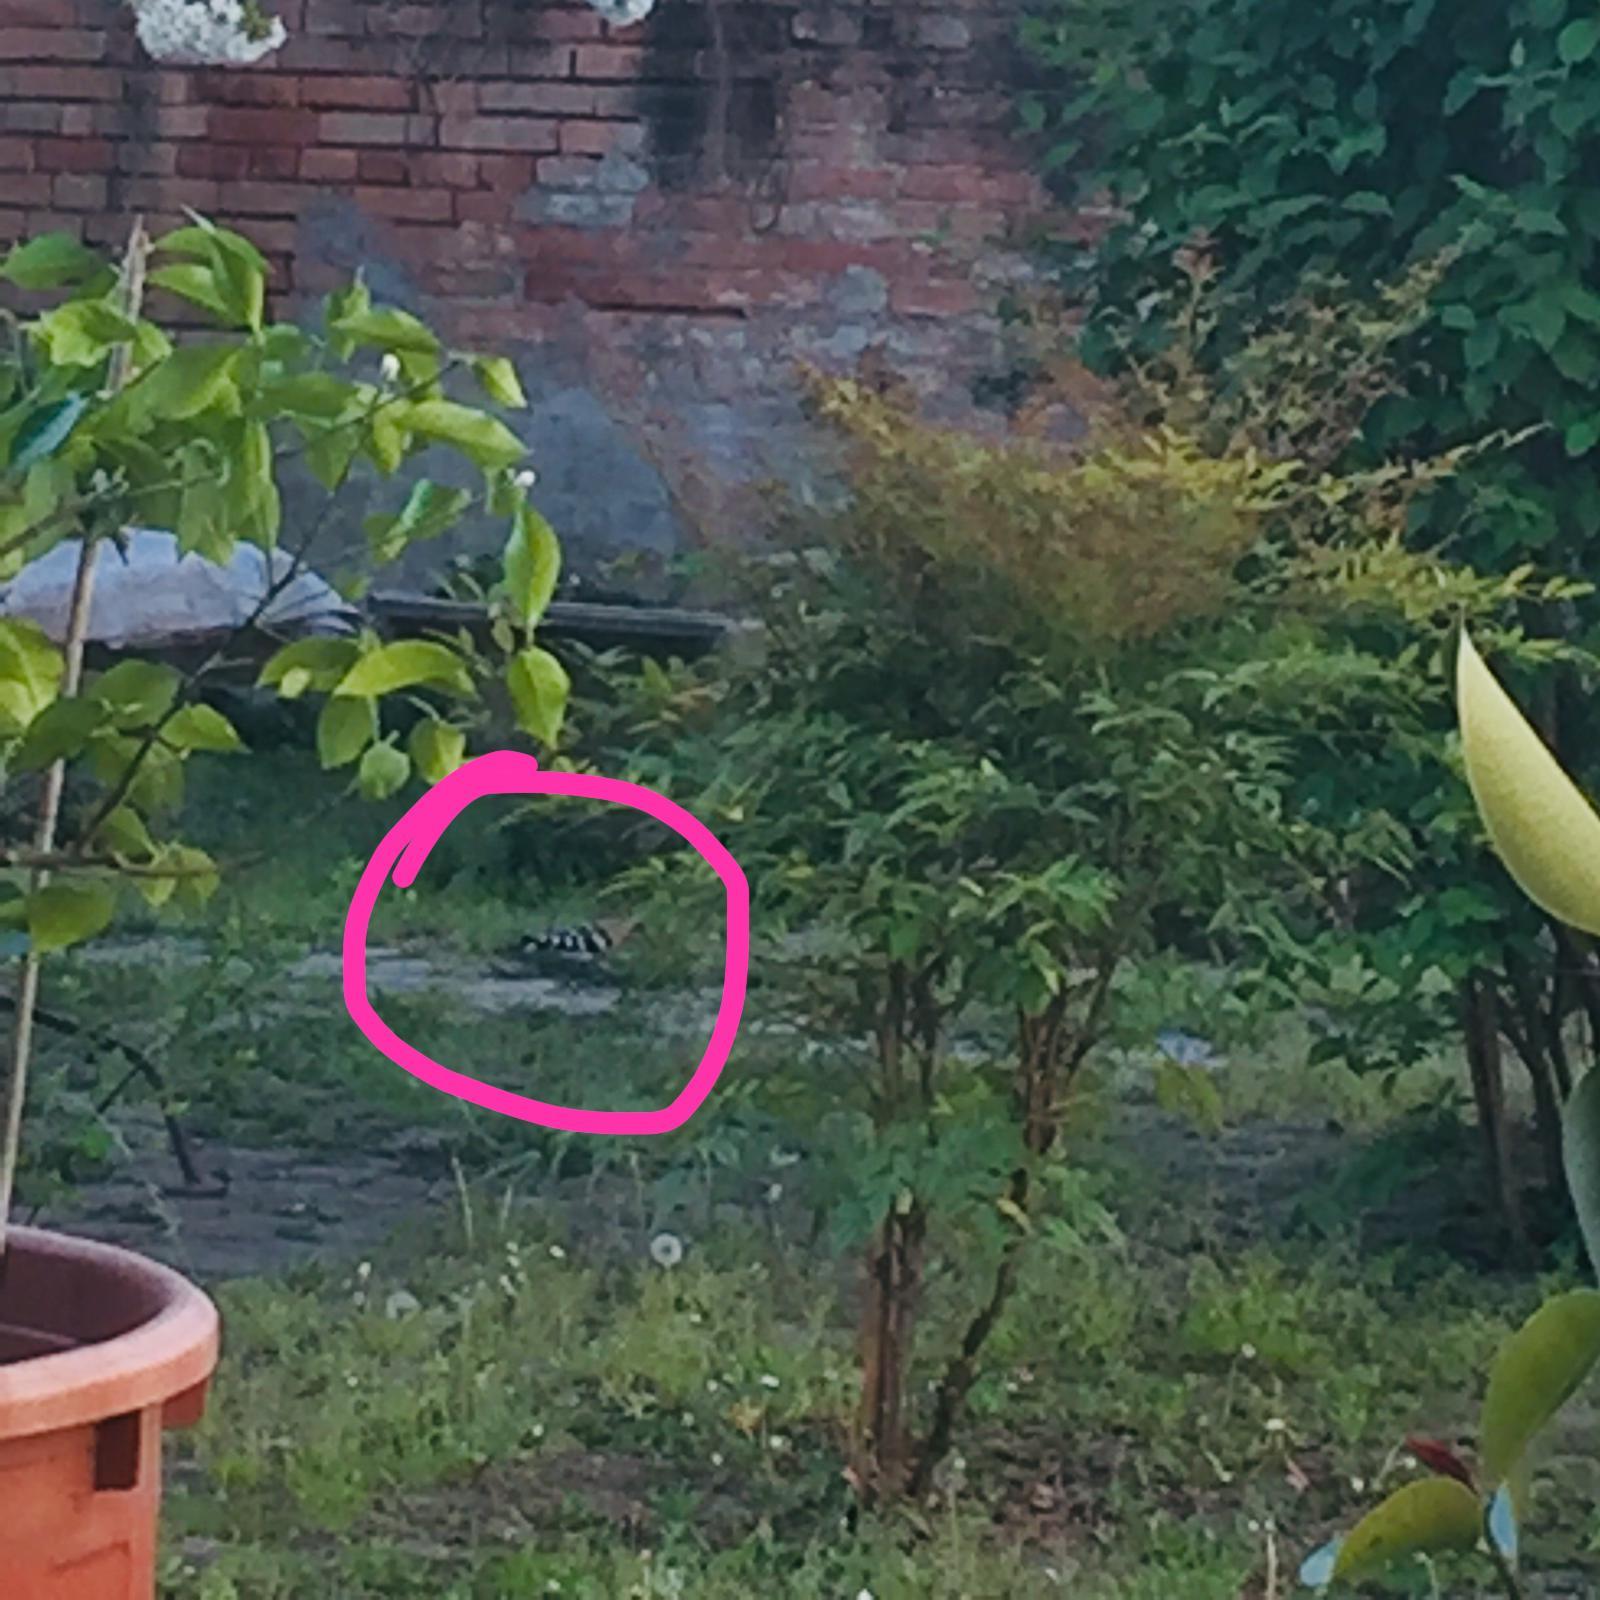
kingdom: Animalia
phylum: Chordata
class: Aves
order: Bucerotiformes
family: Upupidae
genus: Upupa
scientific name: Upupa epops
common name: Eurasian hoopoe
